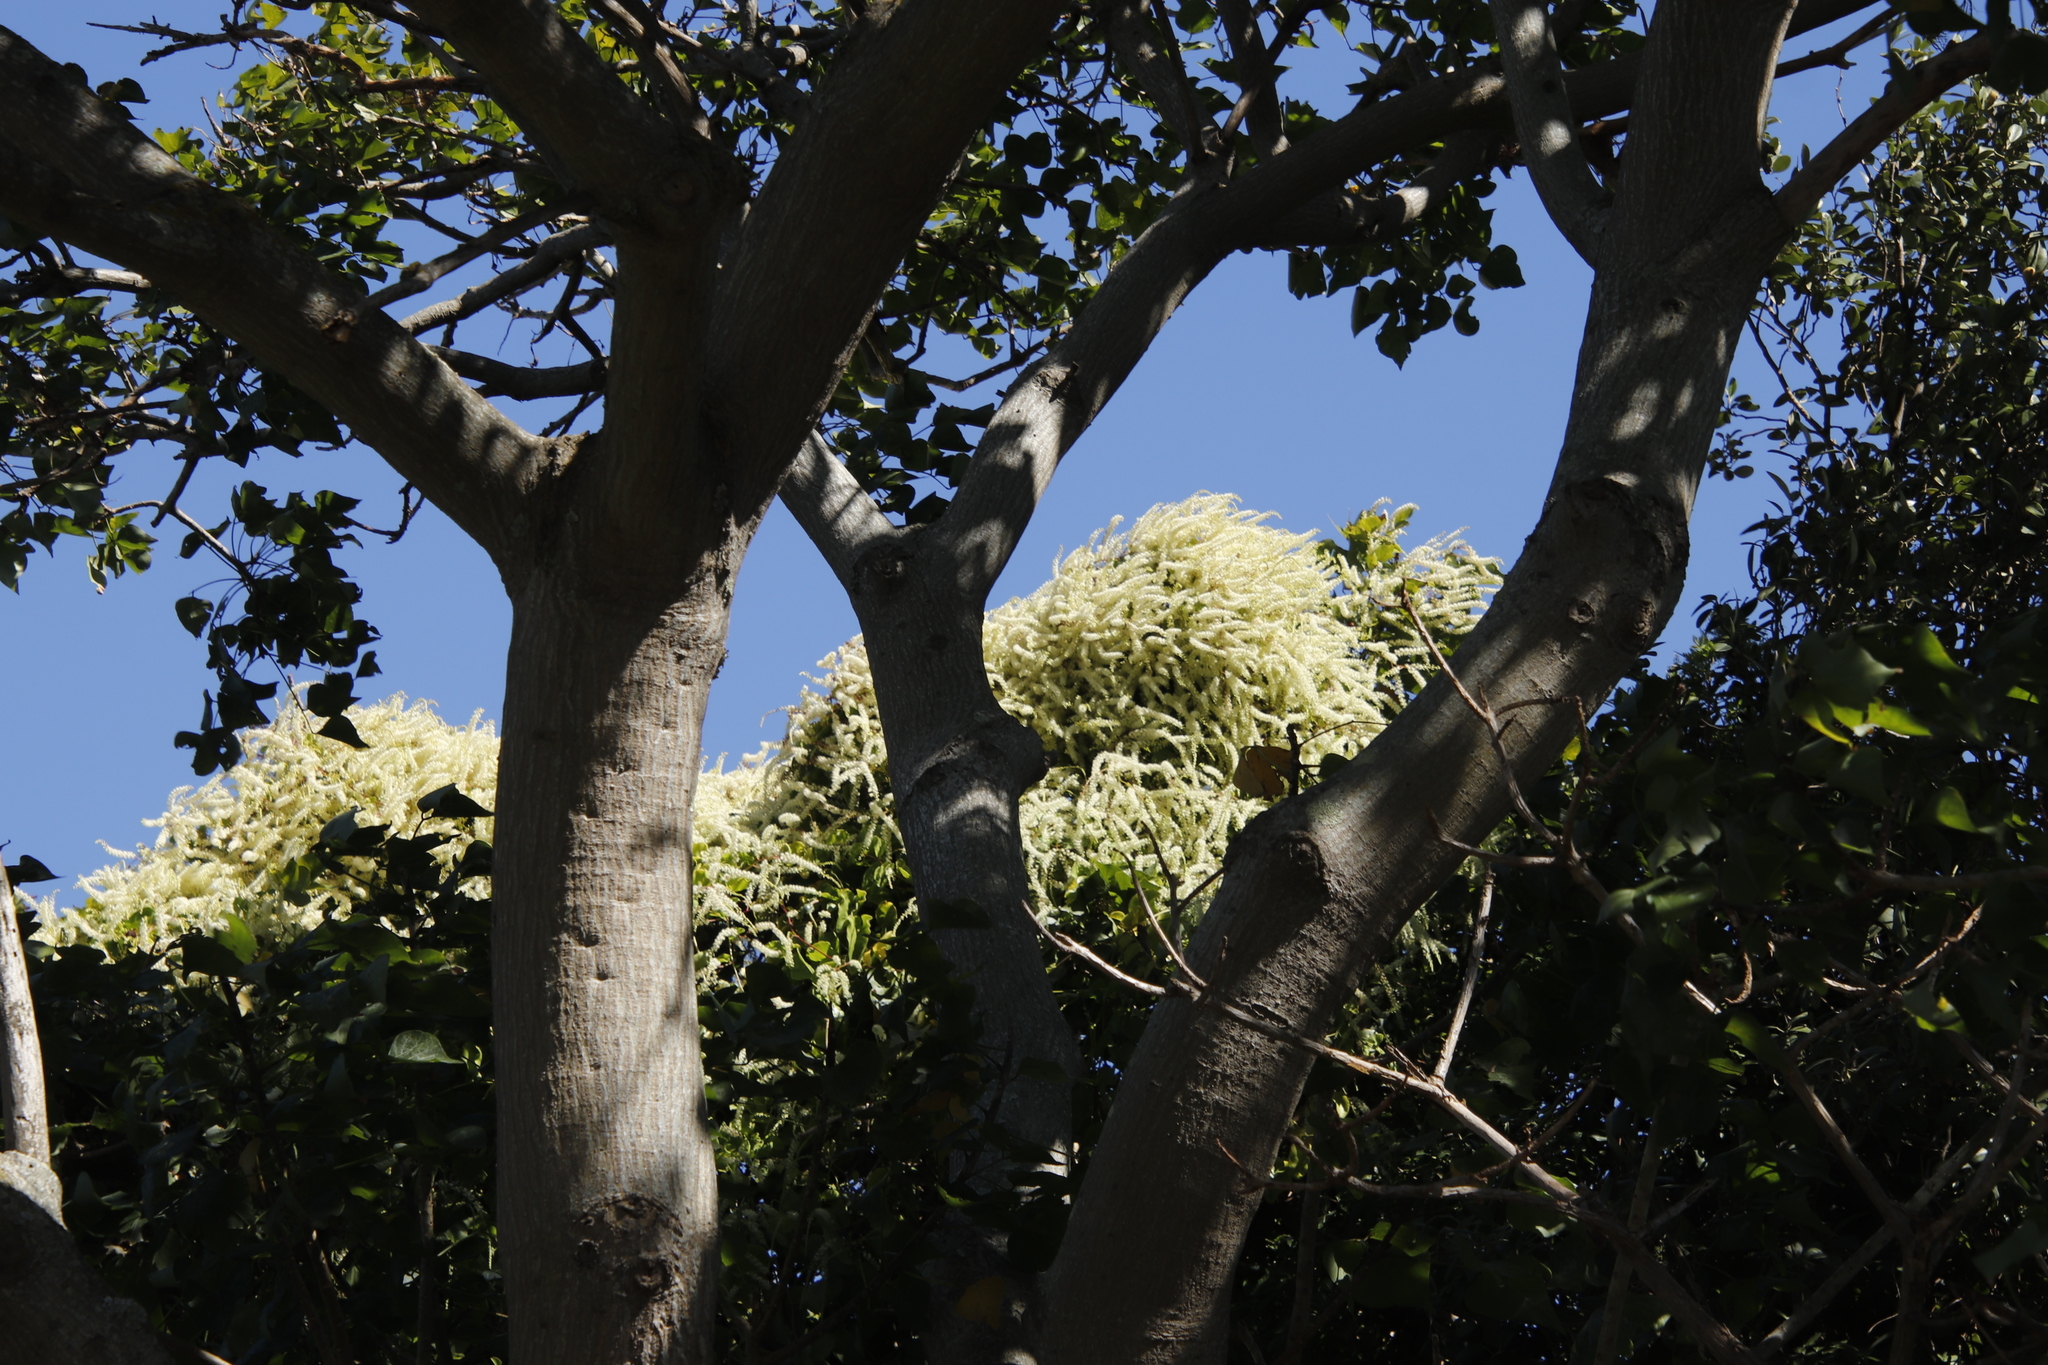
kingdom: Plantae
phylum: Tracheophyta
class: Magnoliopsida
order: Caryophyllales
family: Basellaceae
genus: Anredera
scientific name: Anredera cordifolia
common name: Heartleaf madeiravine
